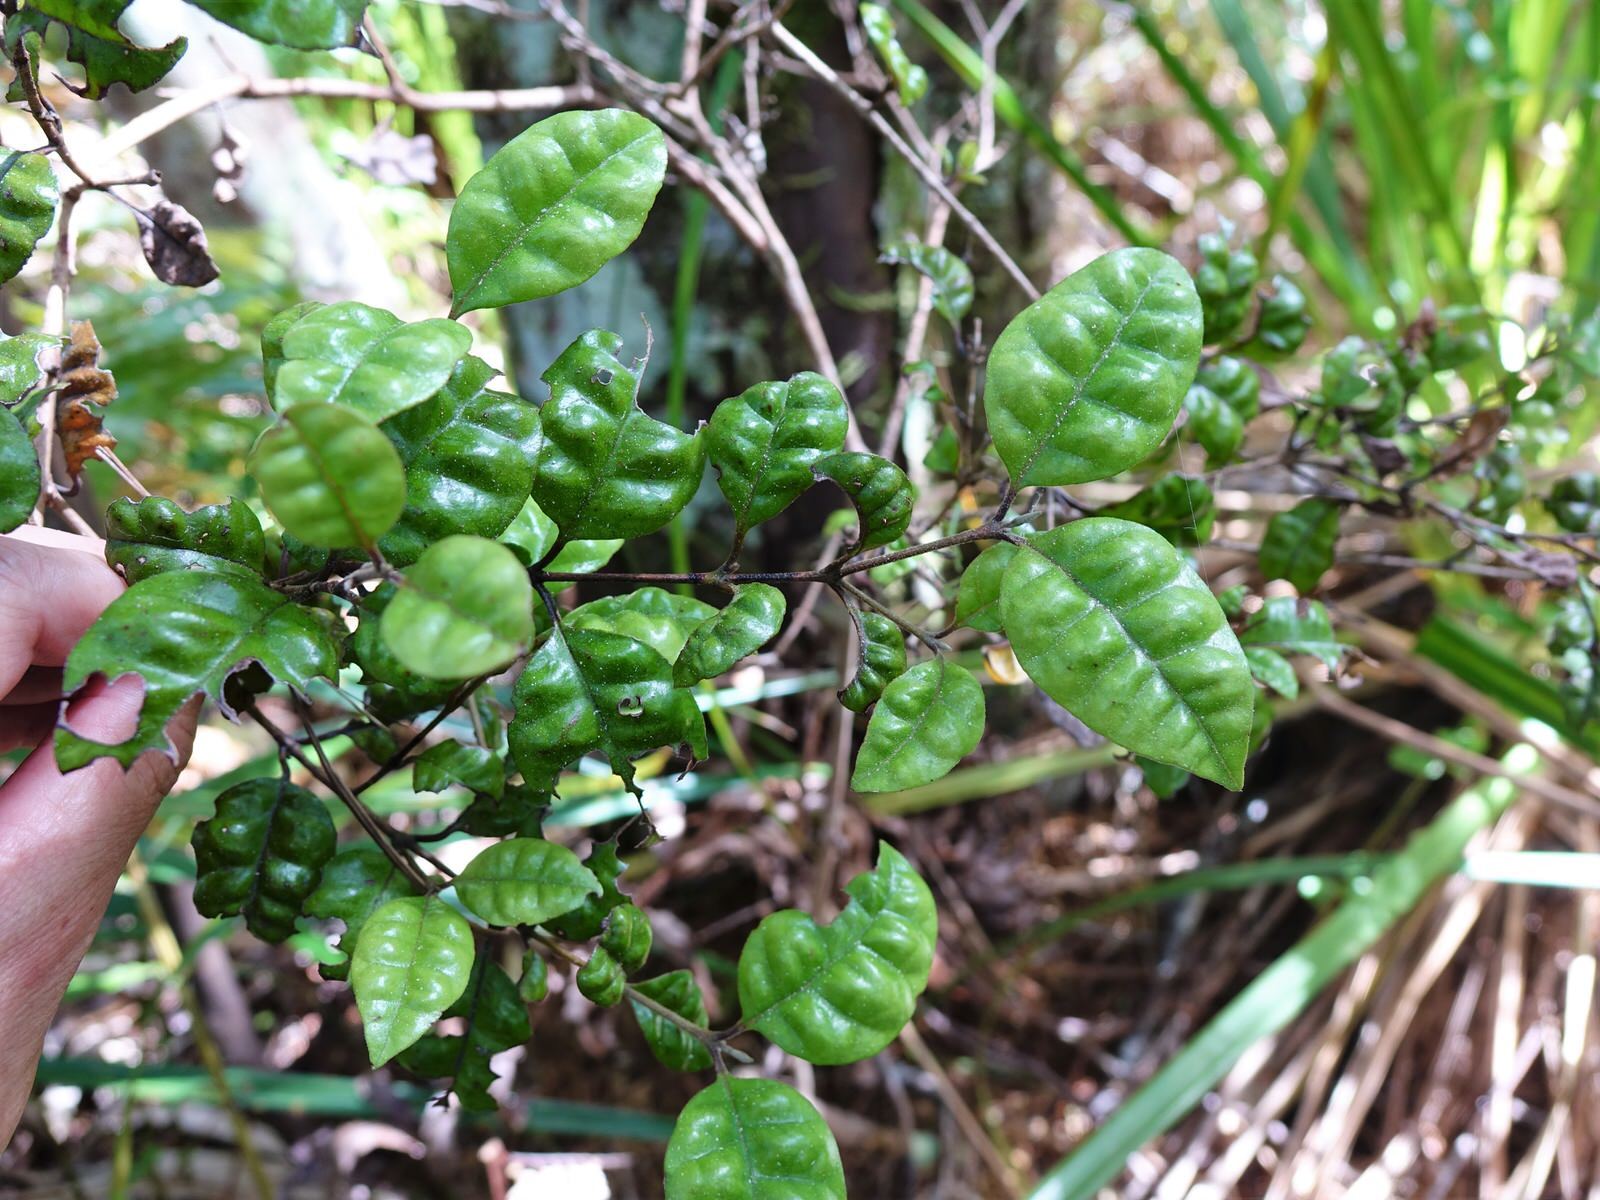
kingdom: Plantae
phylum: Tracheophyta
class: Magnoliopsida
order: Myrtales
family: Myrtaceae
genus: Lophomyrtus
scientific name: Lophomyrtus bullata
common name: Rama rama
